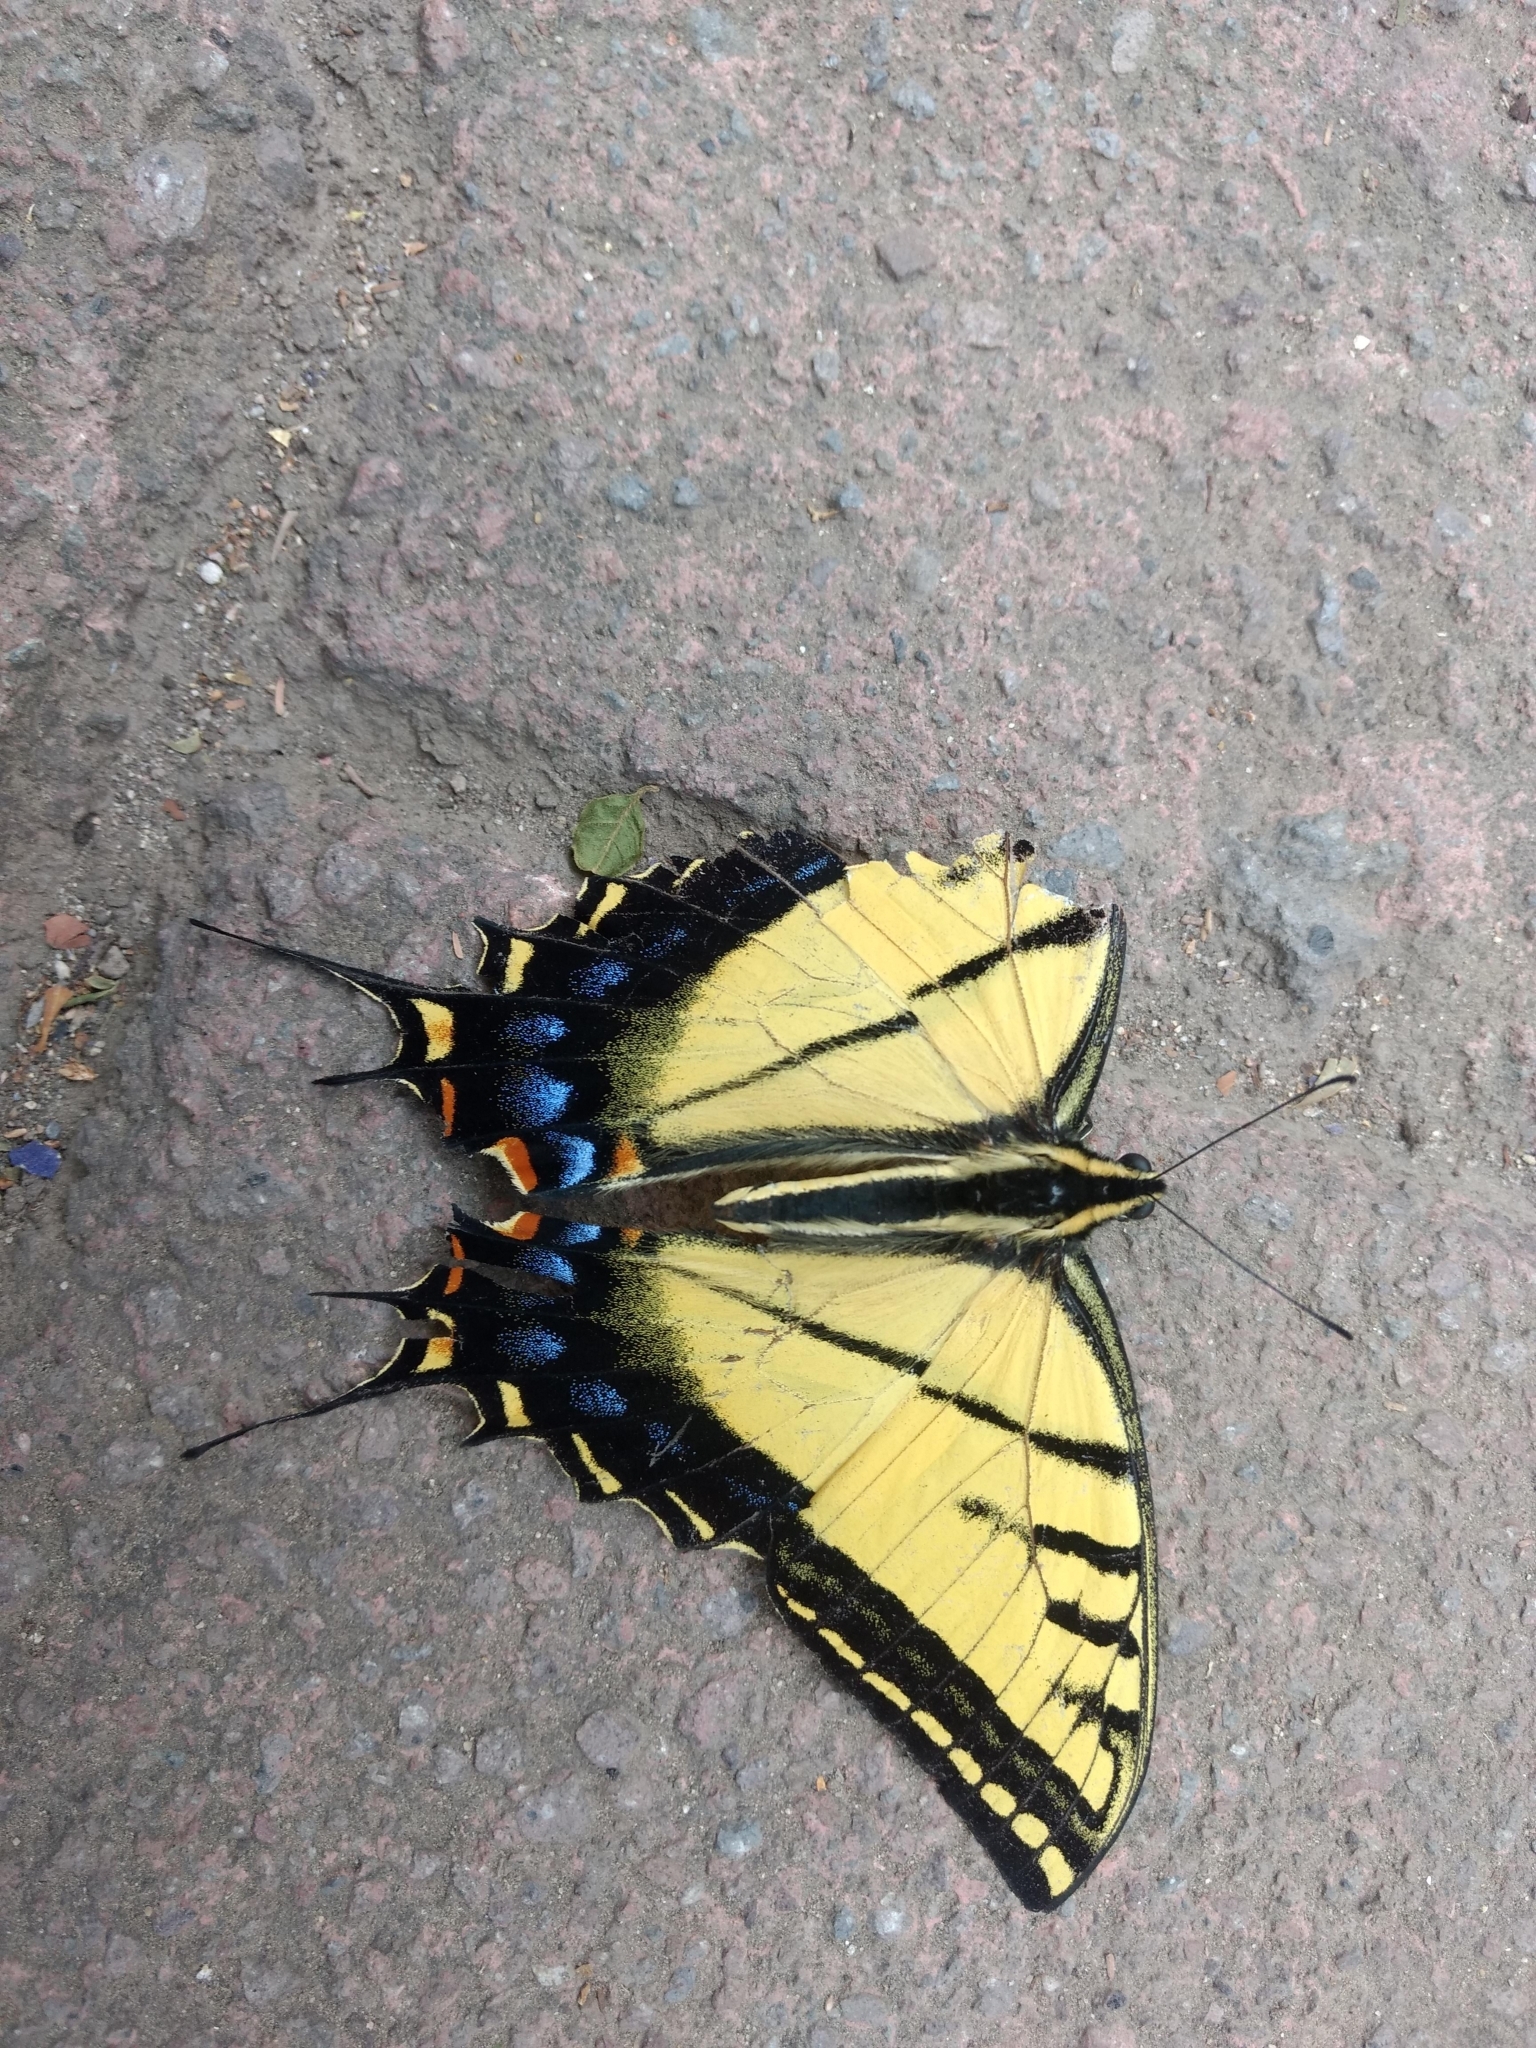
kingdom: Animalia
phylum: Arthropoda
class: Insecta
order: Lepidoptera
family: Papilionidae
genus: Papilio
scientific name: Papilio multicaudata
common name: Two-tailed tiger swallowtail
